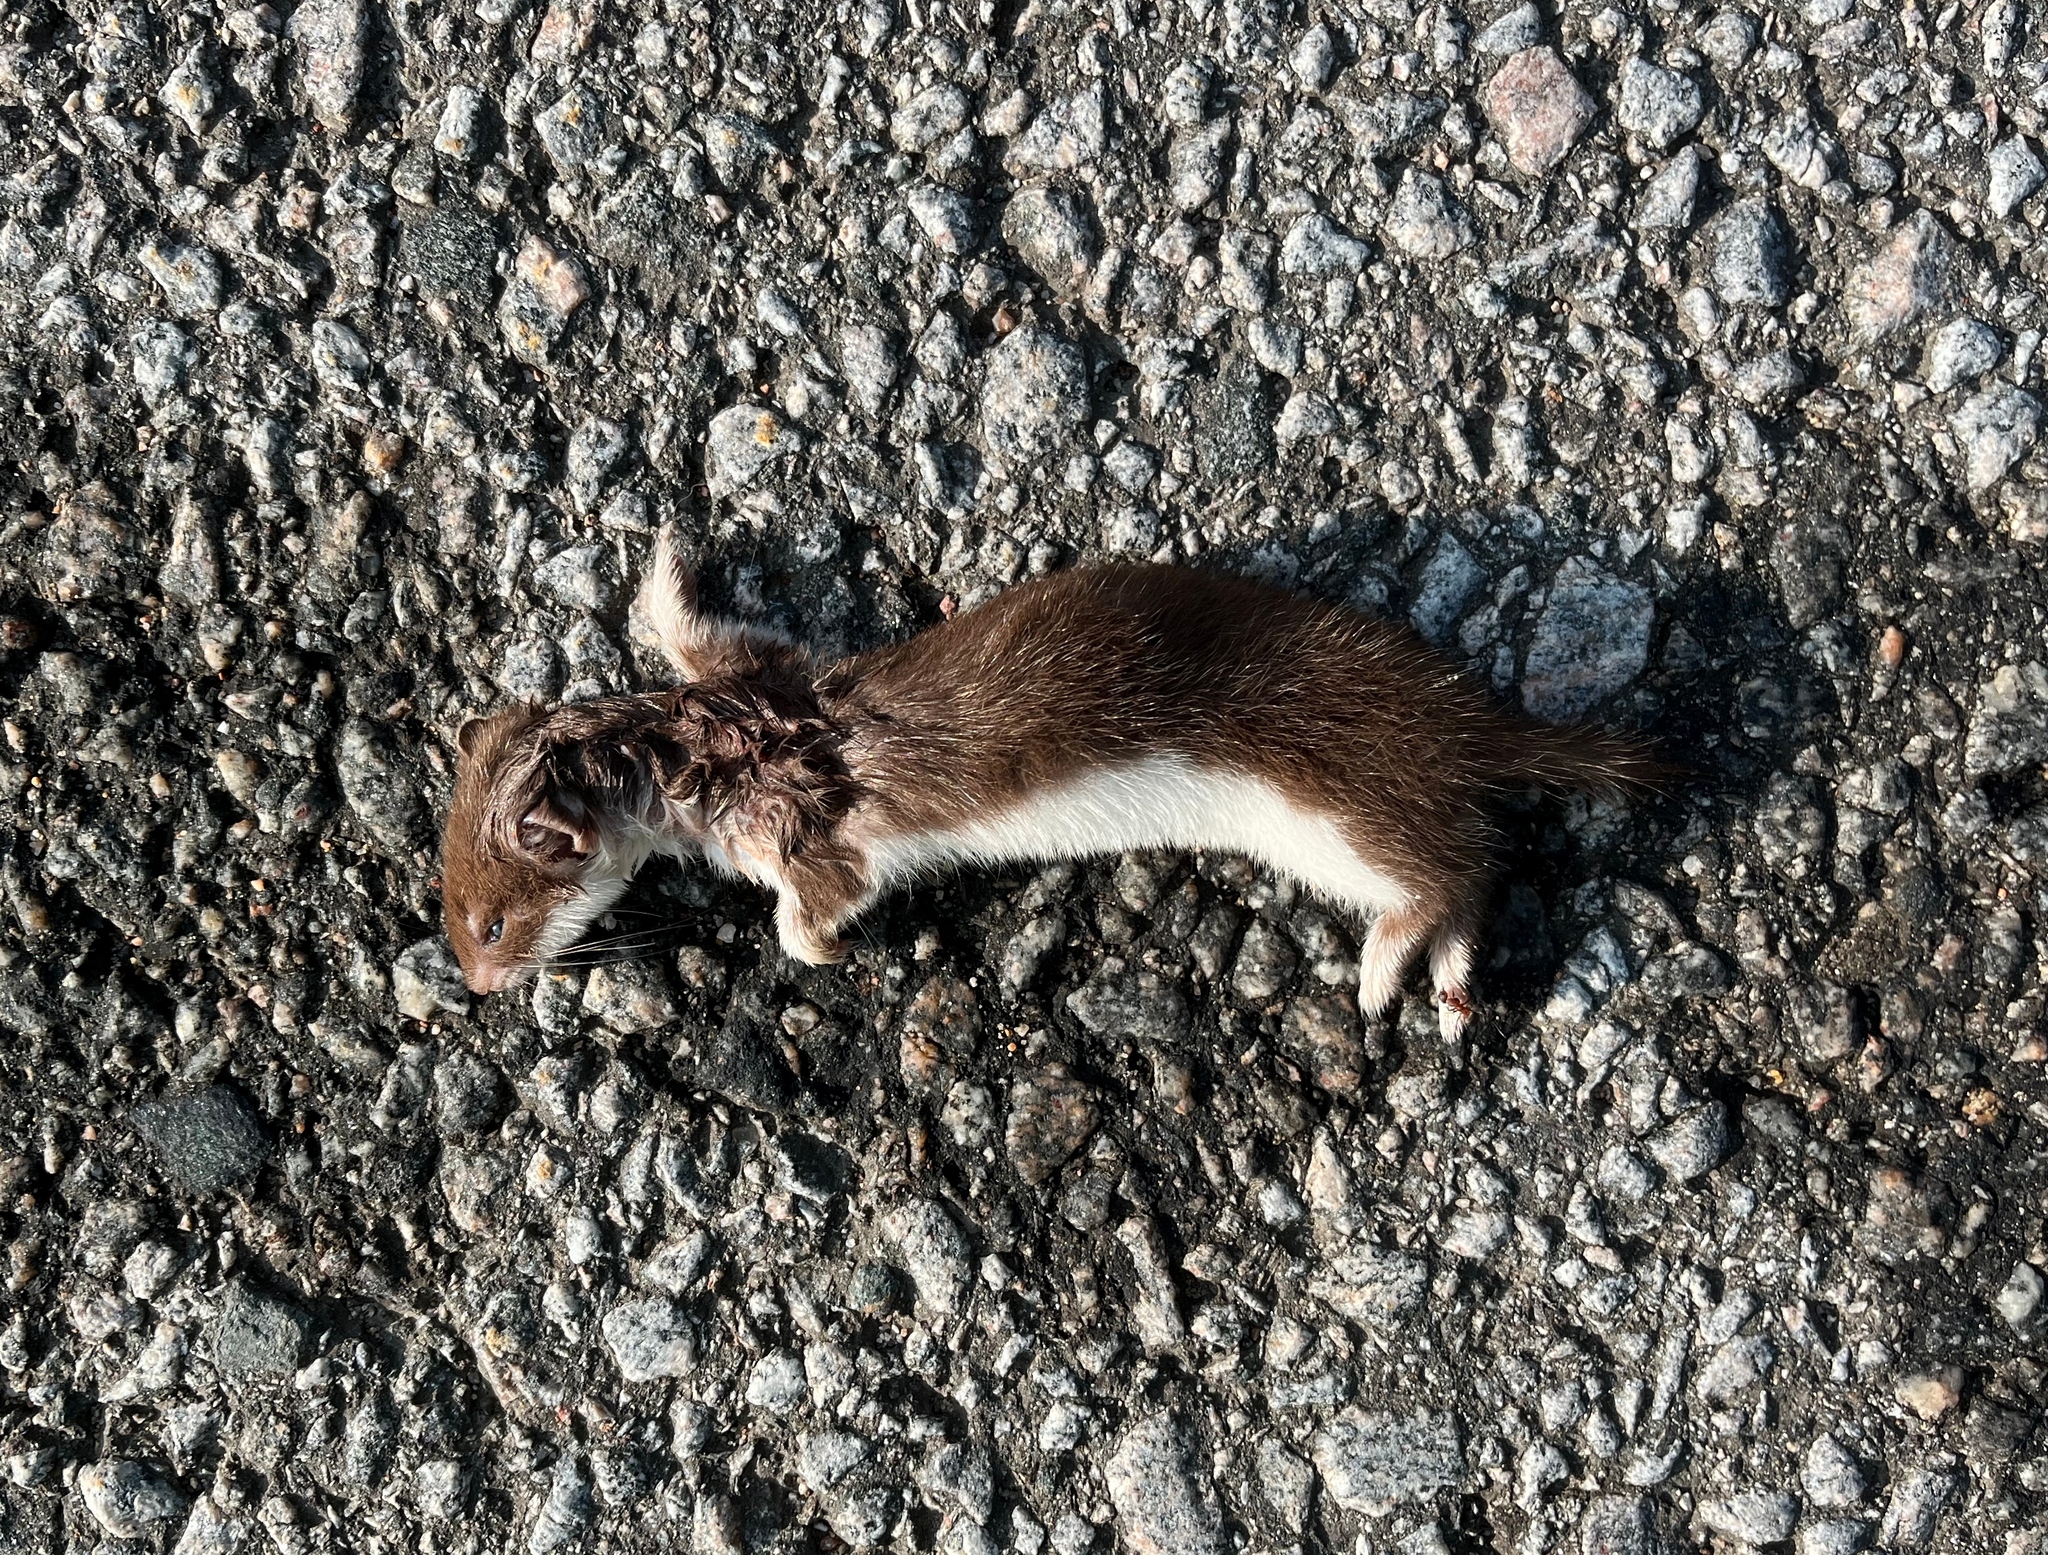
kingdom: Animalia
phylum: Chordata
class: Mammalia
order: Carnivora
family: Mustelidae
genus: Mustela
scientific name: Mustela nivalis
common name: Least weasel
